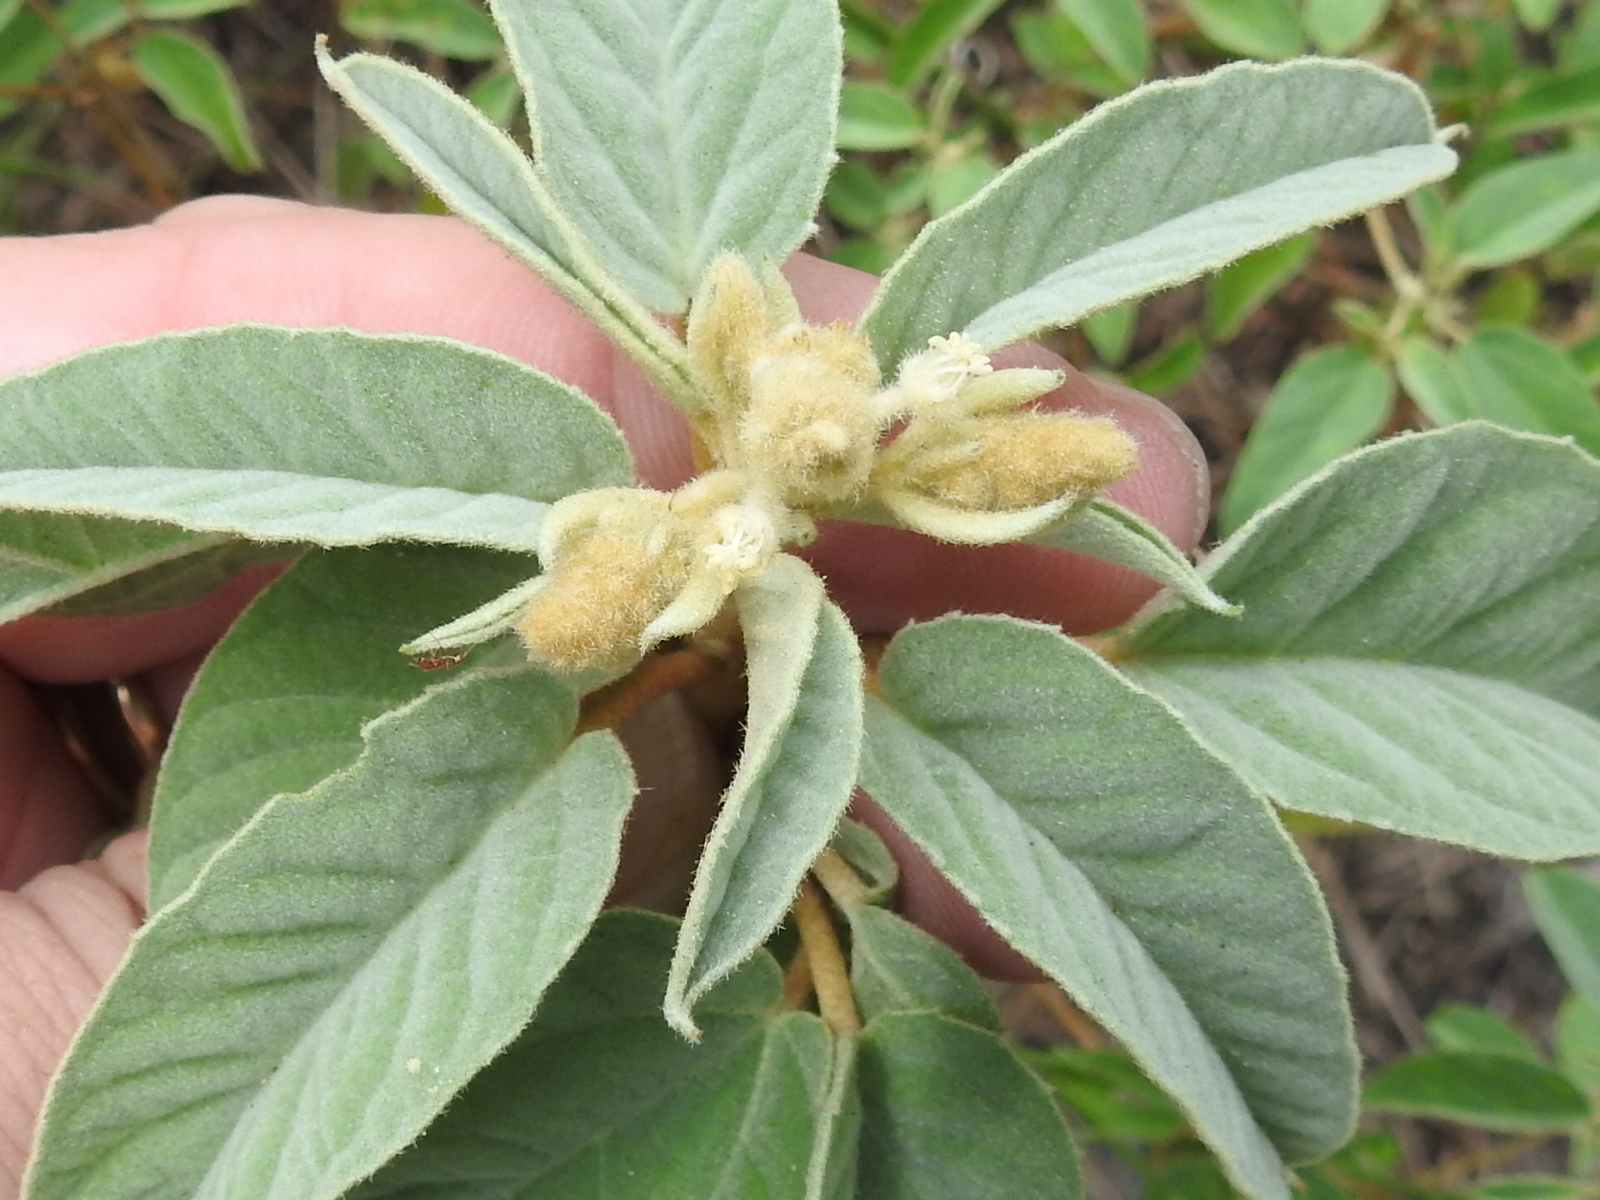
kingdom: Plantae
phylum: Tracheophyta
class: Magnoliopsida
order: Malpighiales
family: Euphorbiaceae
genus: Croton
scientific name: Croton lindheimeri
